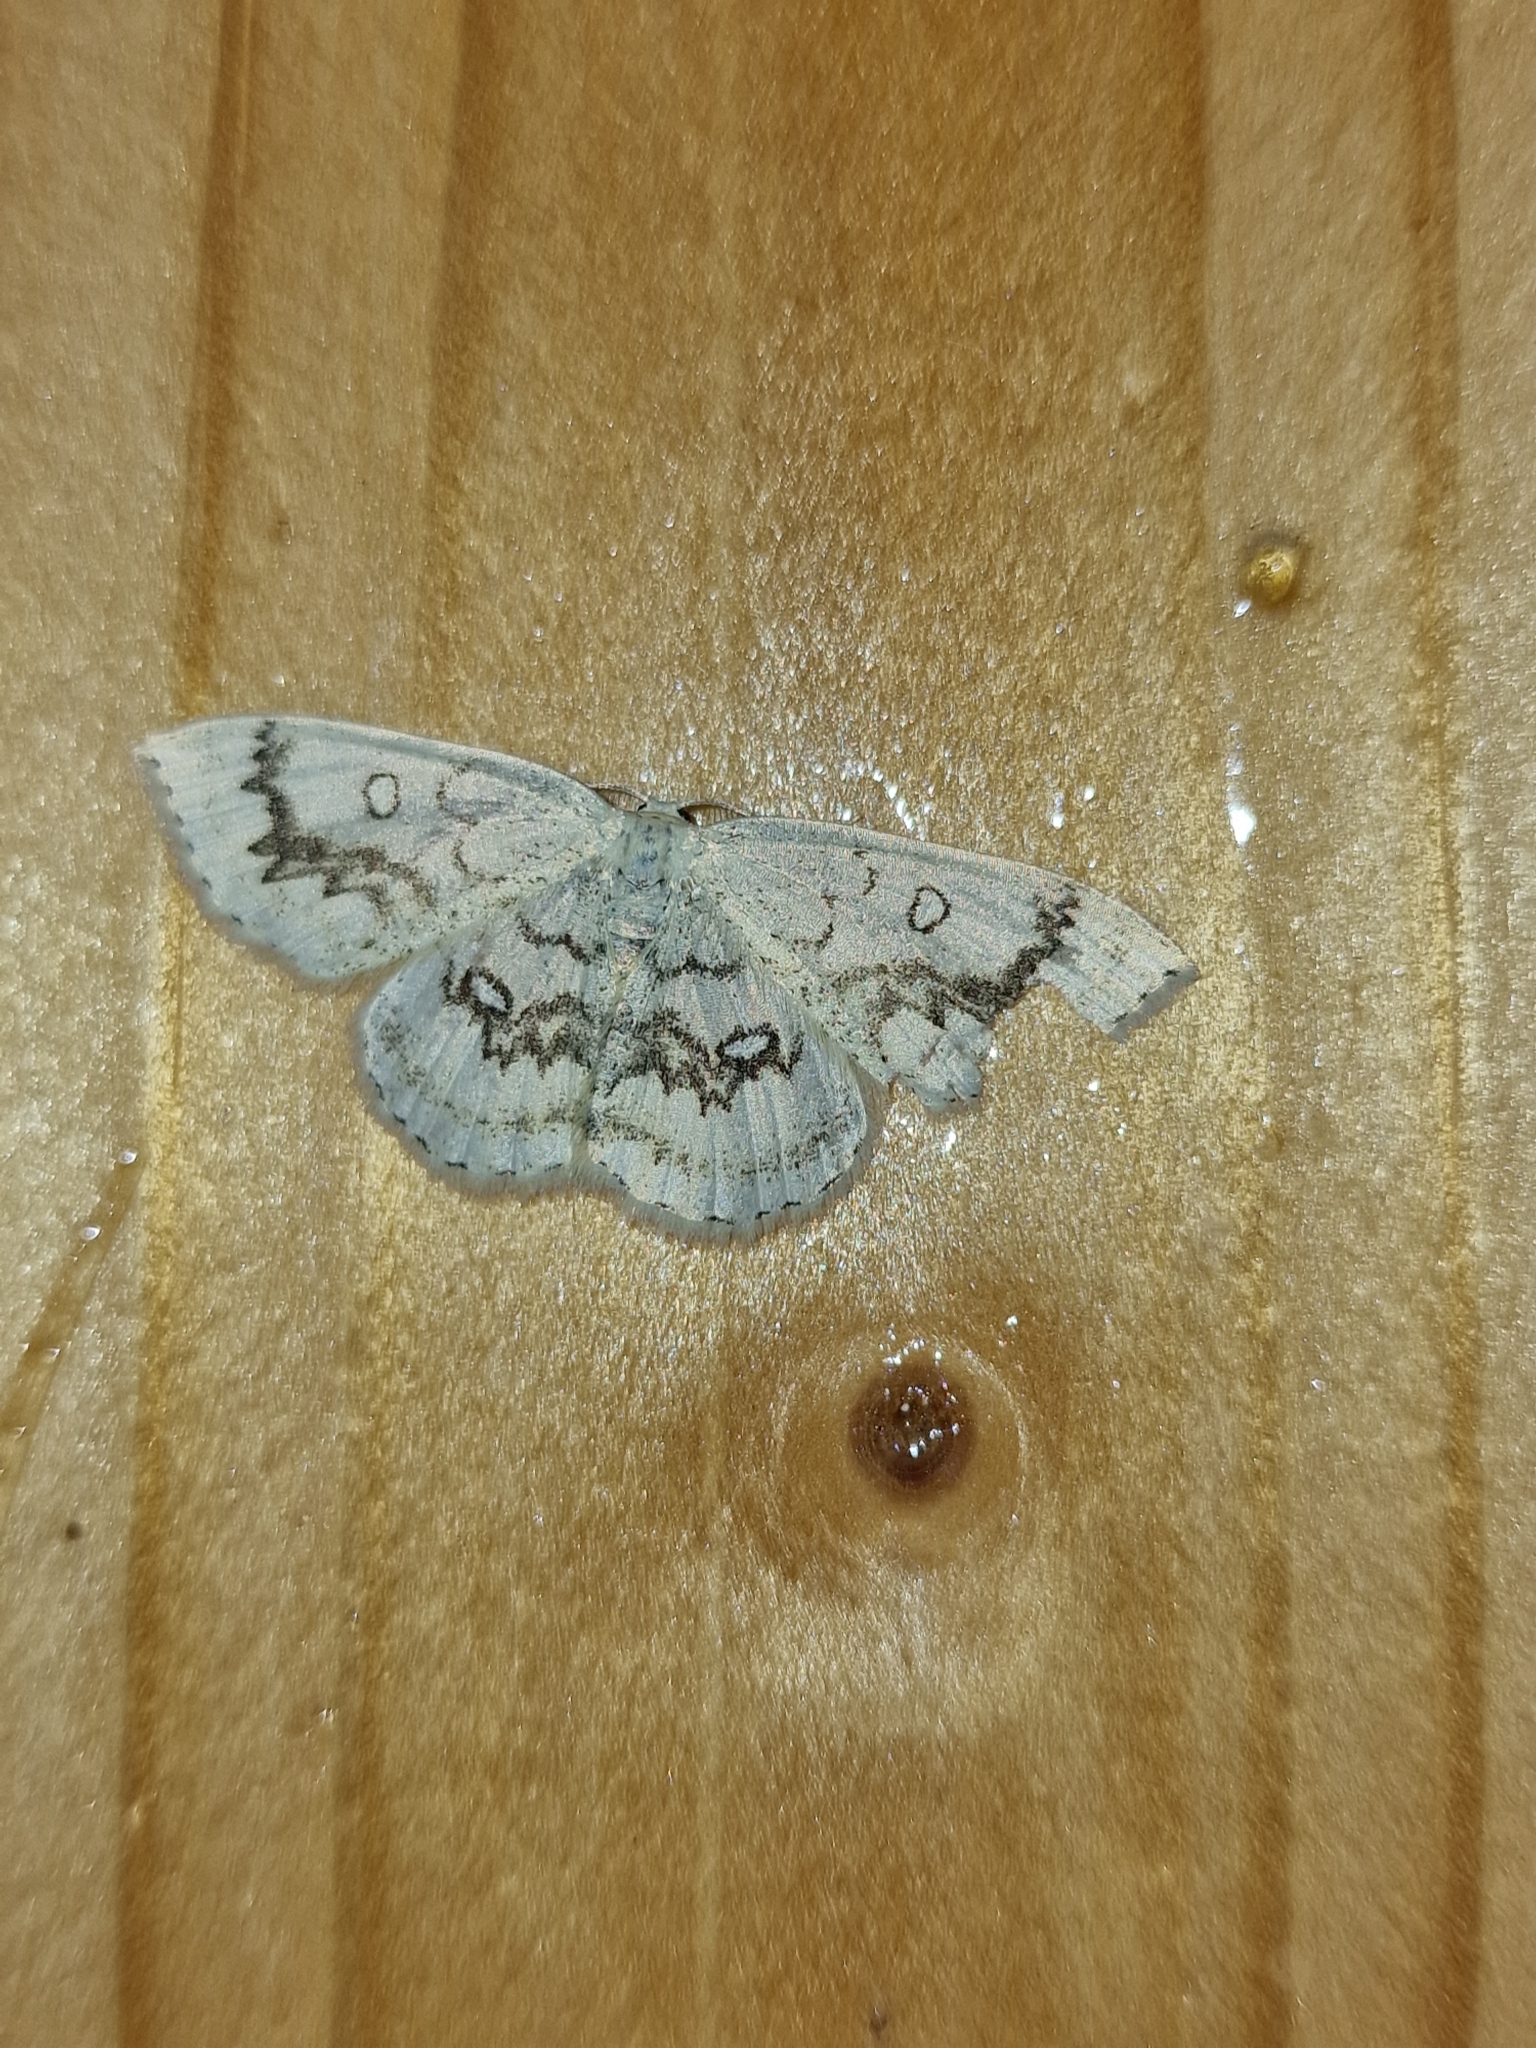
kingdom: Animalia
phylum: Arthropoda
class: Insecta
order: Lepidoptera
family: Geometridae
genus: Cyclophora
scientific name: Cyclophora annularia
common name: Mocha
